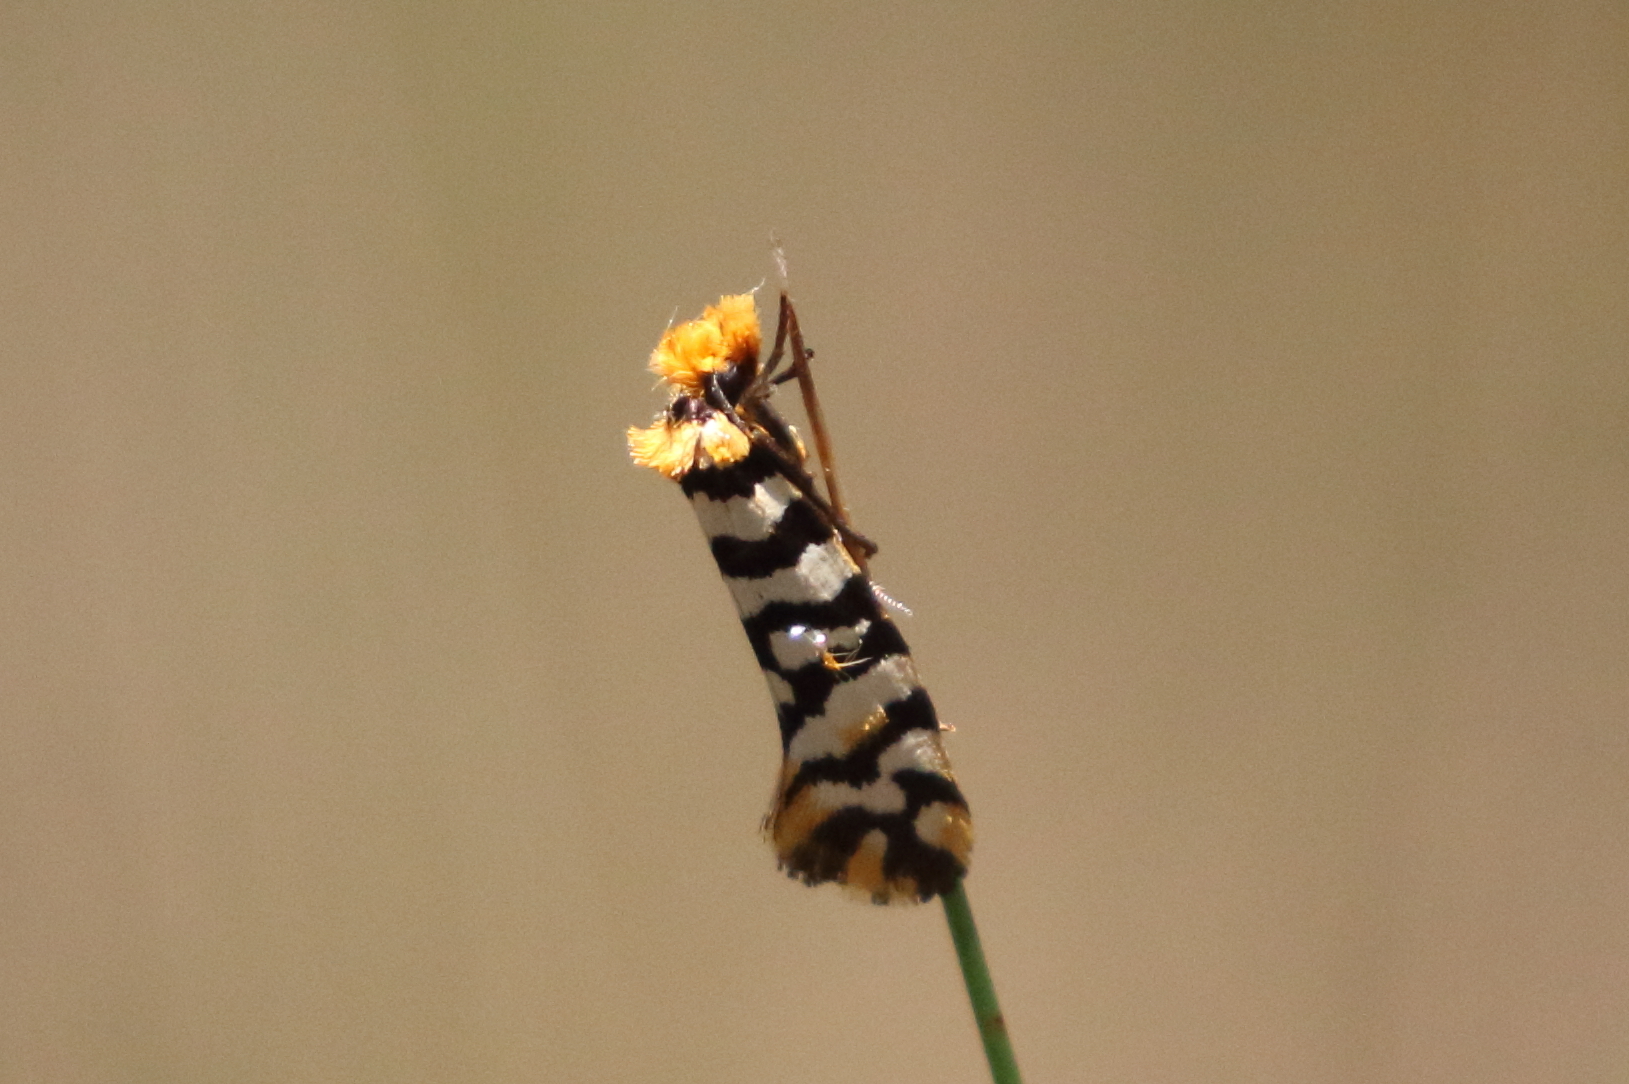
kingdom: Animalia
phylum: Arthropoda
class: Insecta
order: Lepidoptera
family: Tineidae
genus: Moerarchis
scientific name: Moerarchis australasiella
